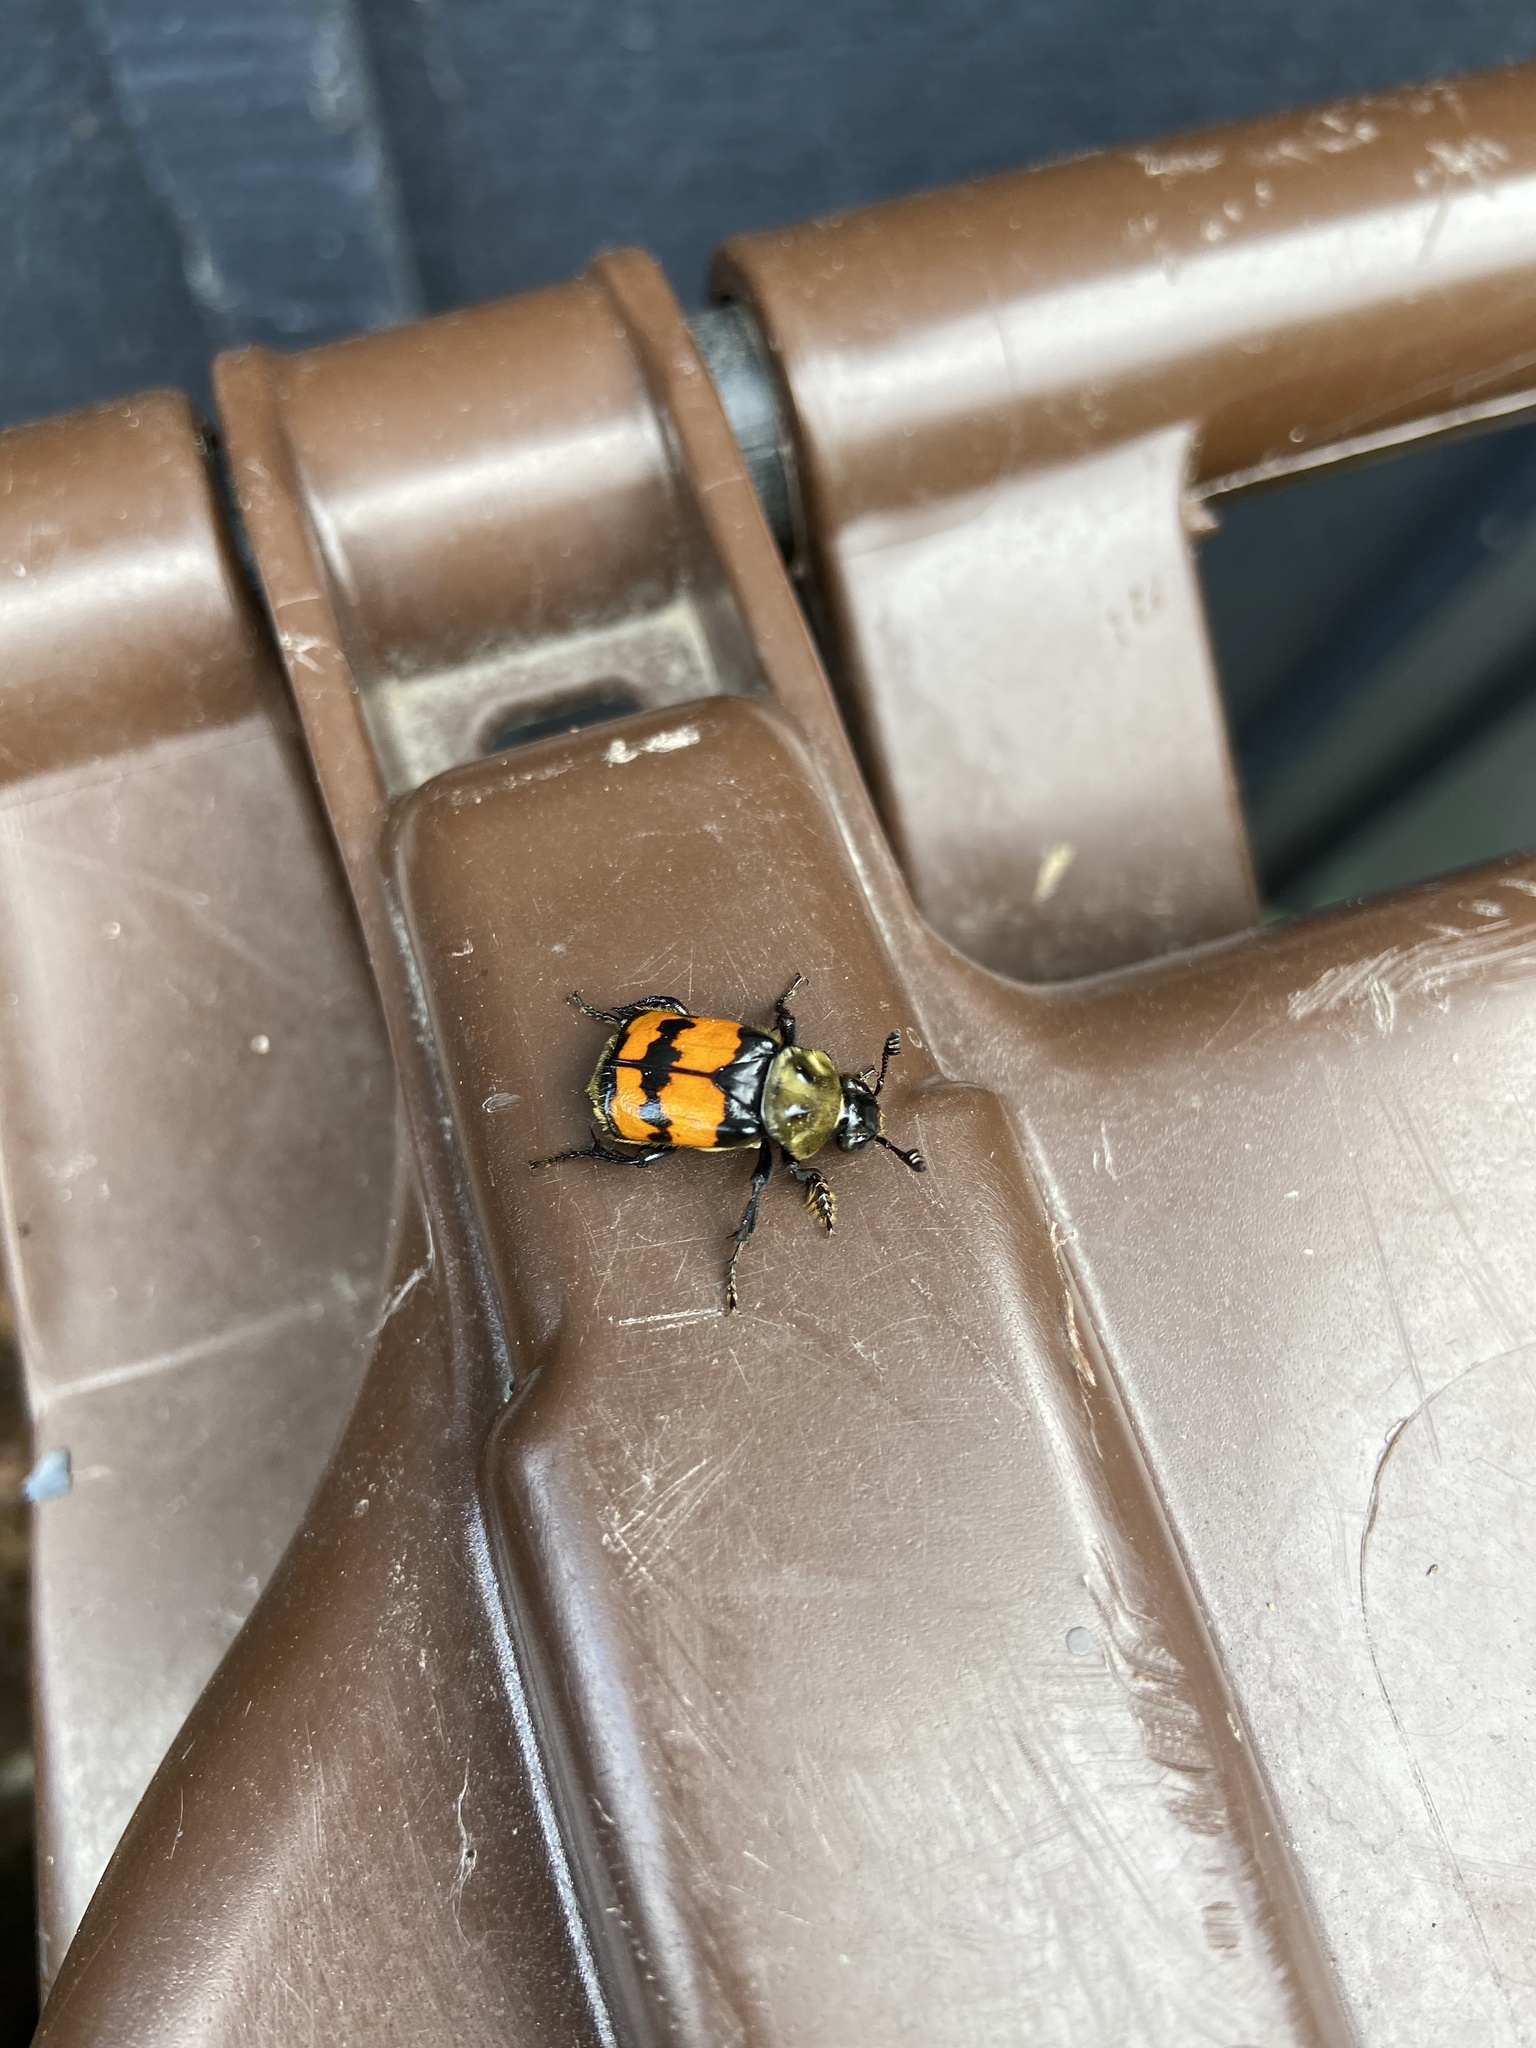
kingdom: Animalia
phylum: Arthropoda
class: Insecta
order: Coleoptera
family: Staphylinidae
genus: Nicrophorus
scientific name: Nicrophorus tomentosus
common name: Tomentose burying beetle
